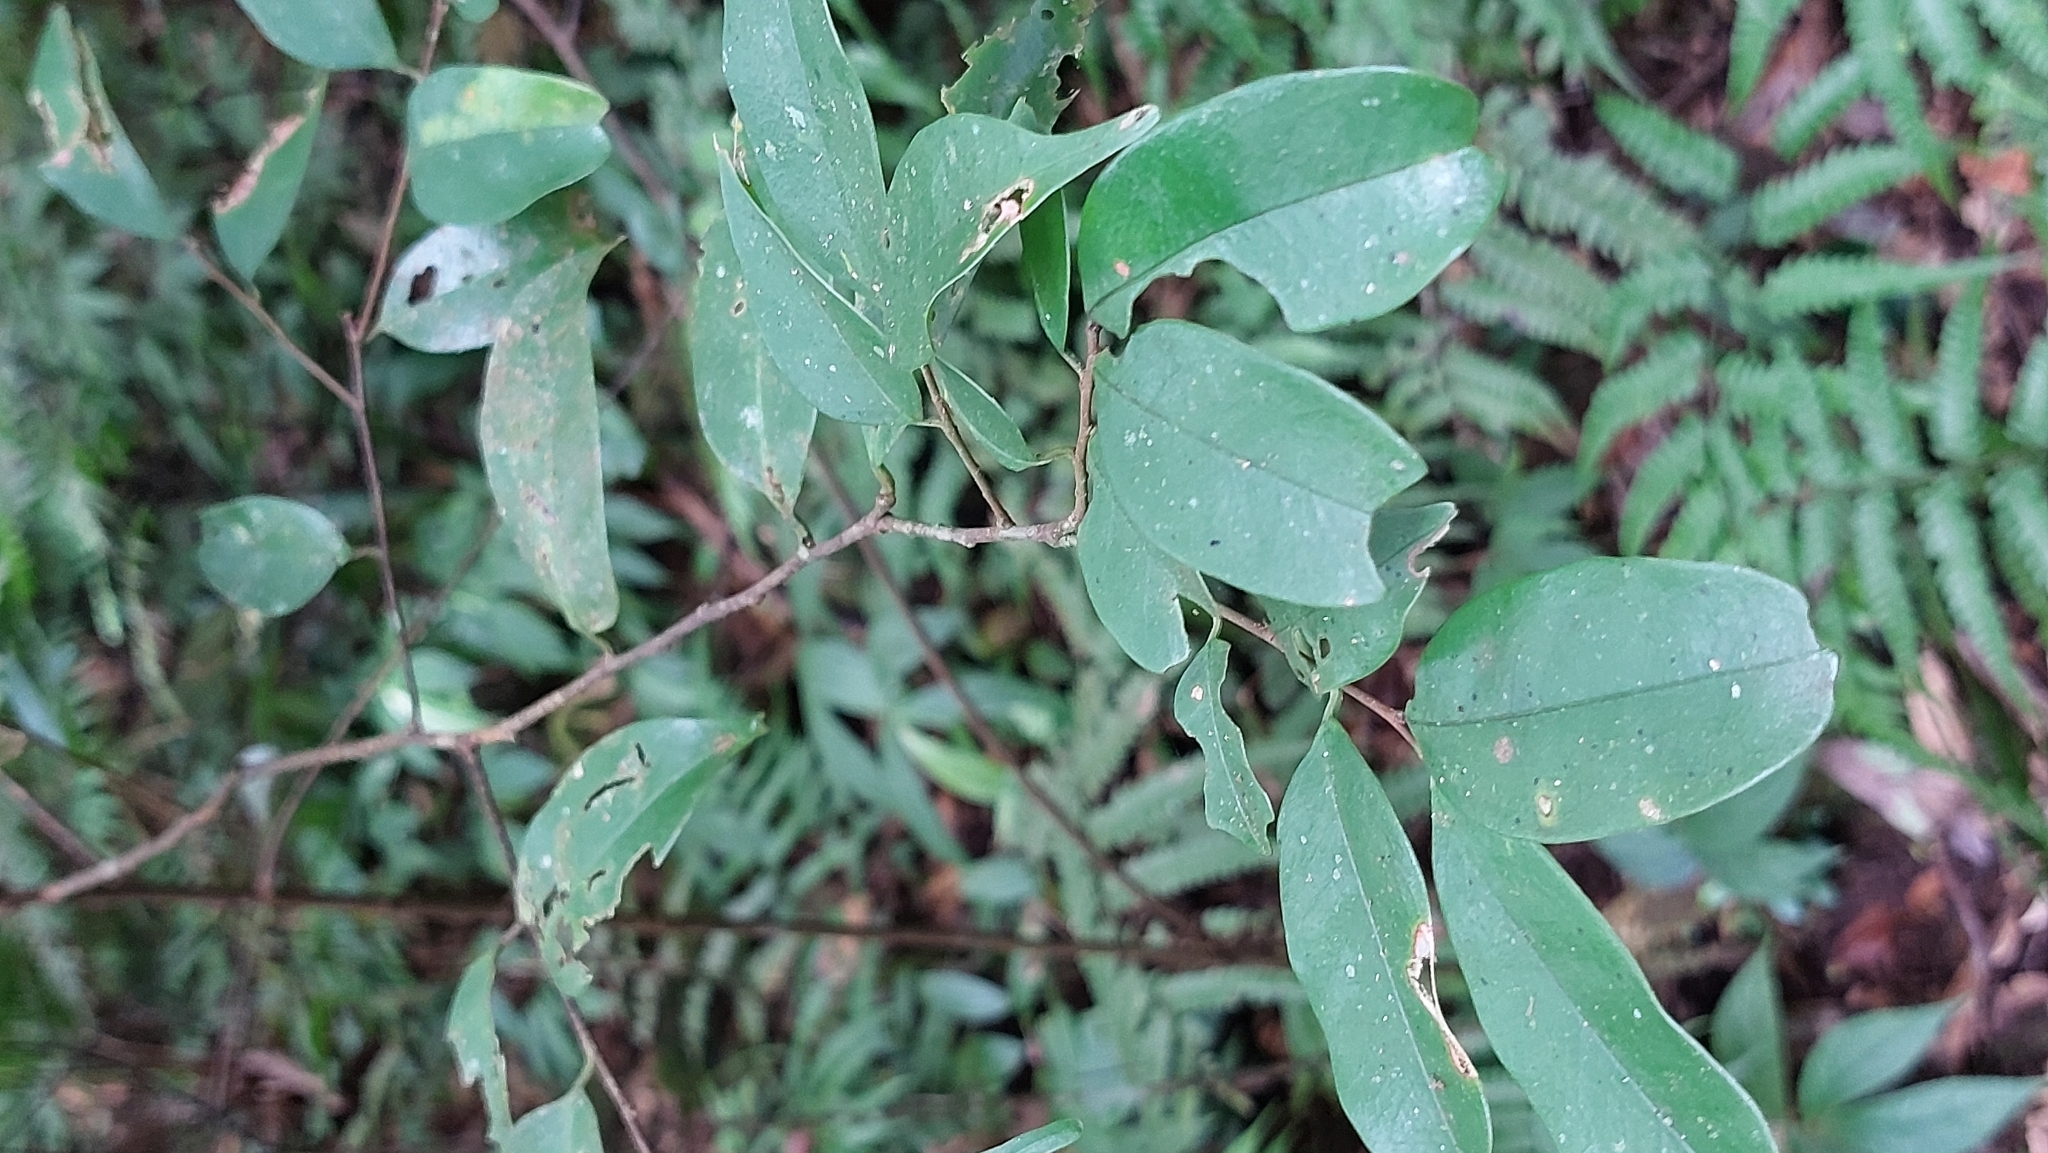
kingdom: Plantae
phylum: Tracheophyta
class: Magnoliopsida
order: Rosales
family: Rosaceae
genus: Prunus
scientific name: Prunus phaeosticta
